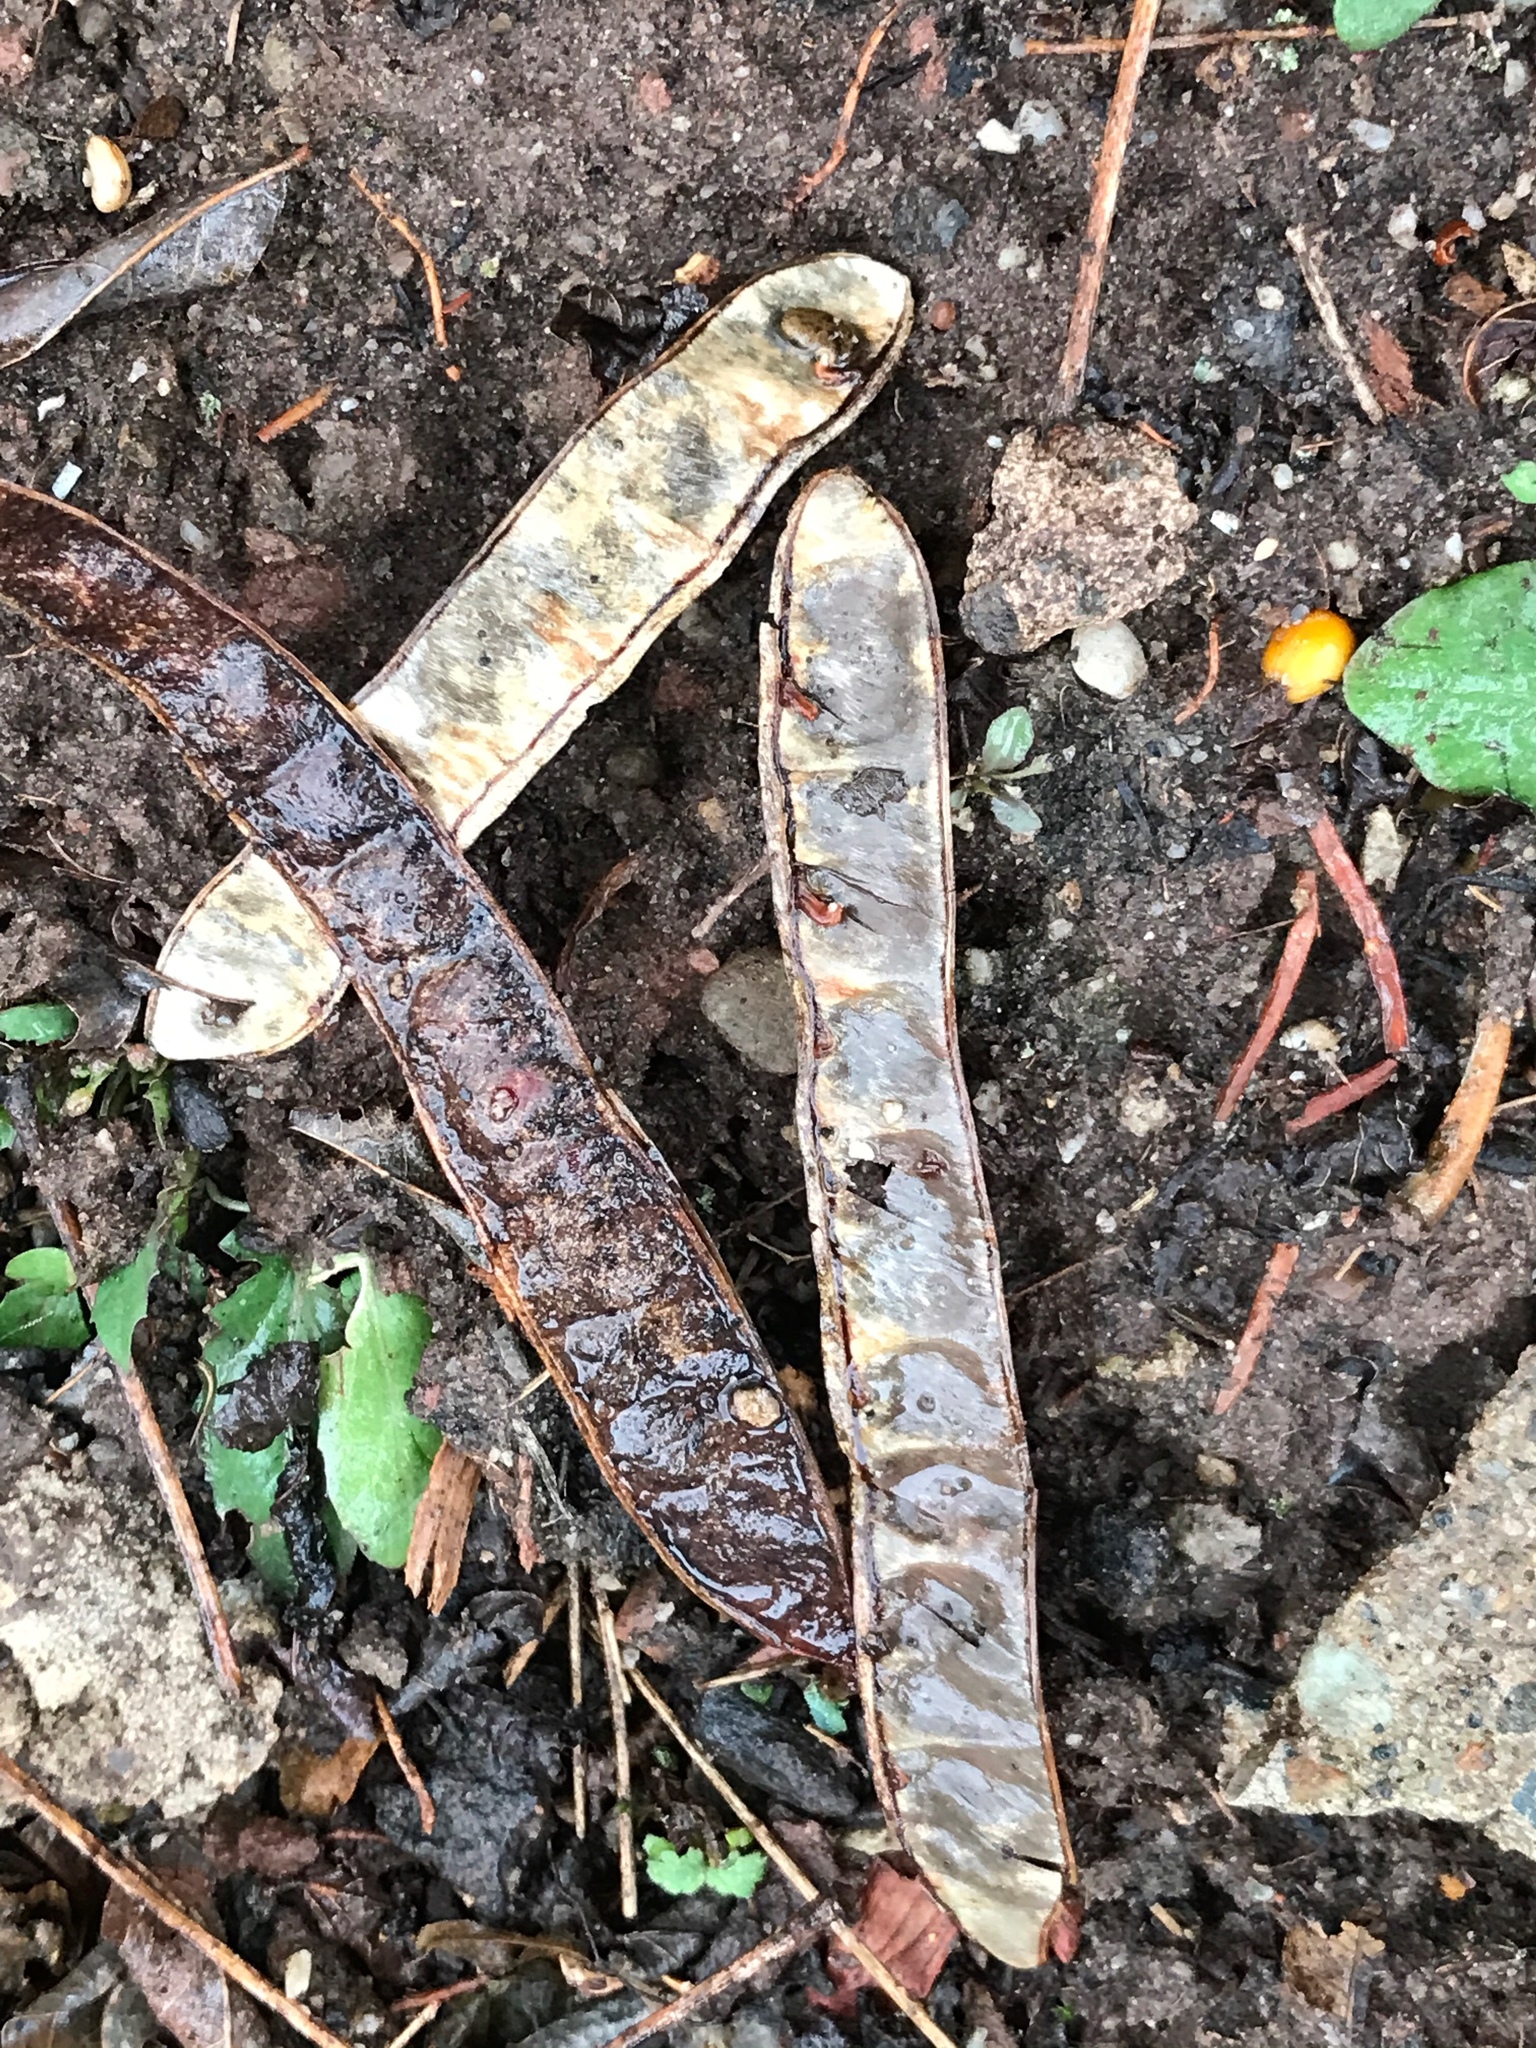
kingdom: Plantae
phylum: Tracheophyta
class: Magnoliopsida
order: Fabales
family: Fabaceae
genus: Robinia
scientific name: Robinia pseudoacacia
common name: Black locust
